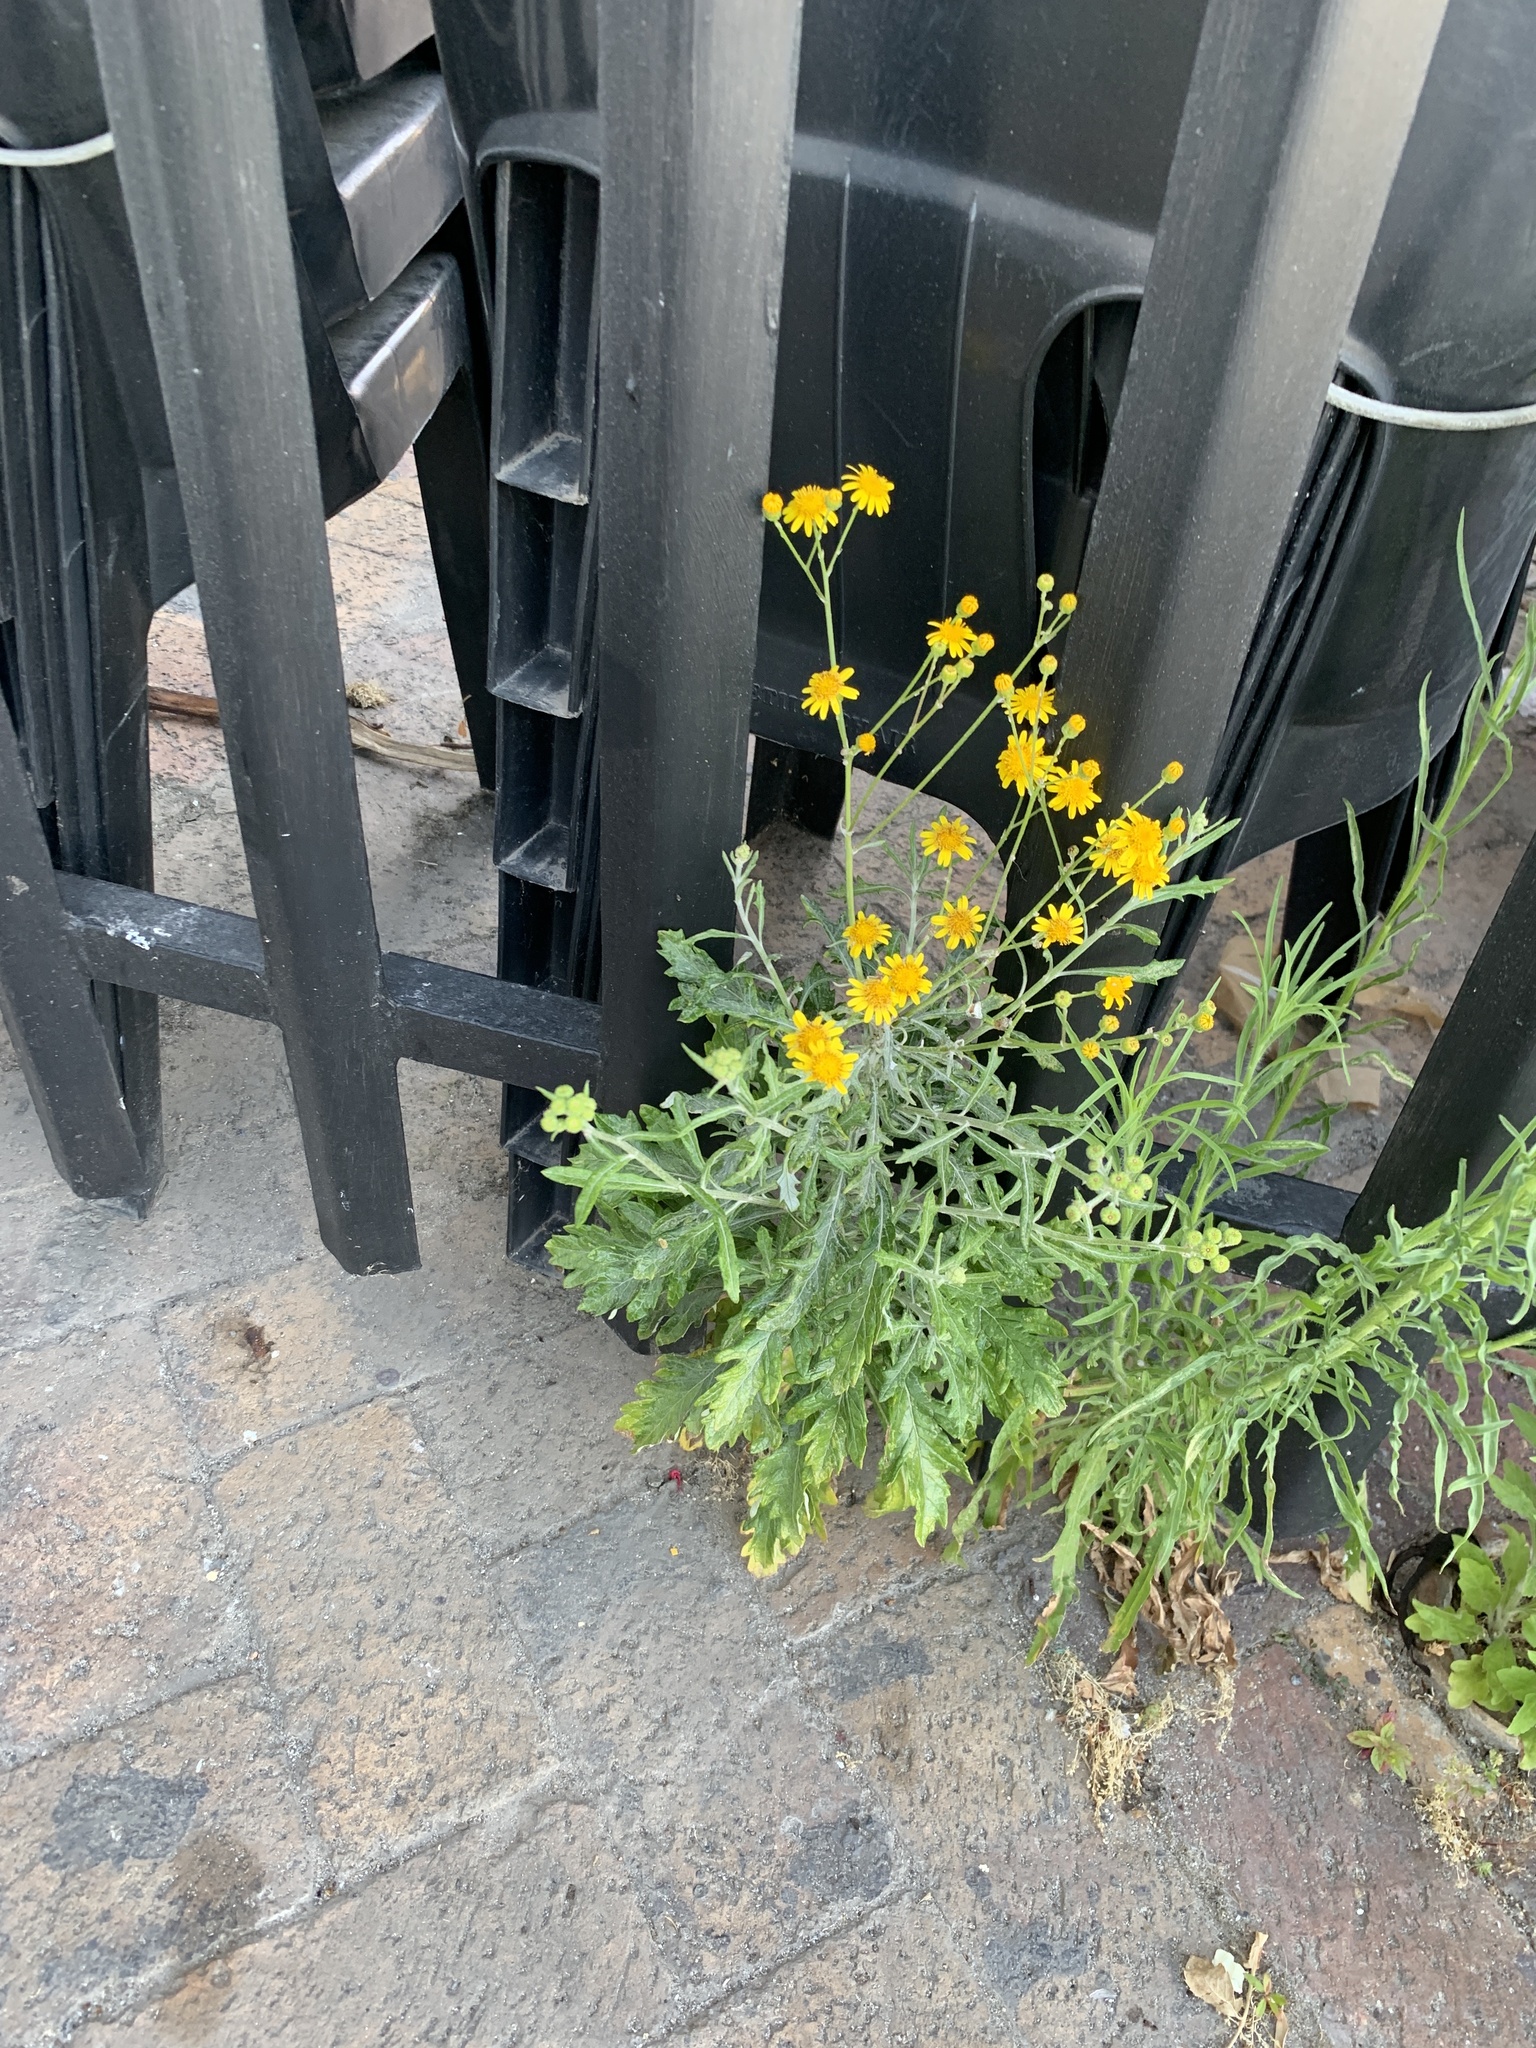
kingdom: Plantae
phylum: Tracheophyta
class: Magnoliopsida
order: Asterales
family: Asteraceae
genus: Senecio
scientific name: Senecio pterophorus
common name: Shoddy ragwort
